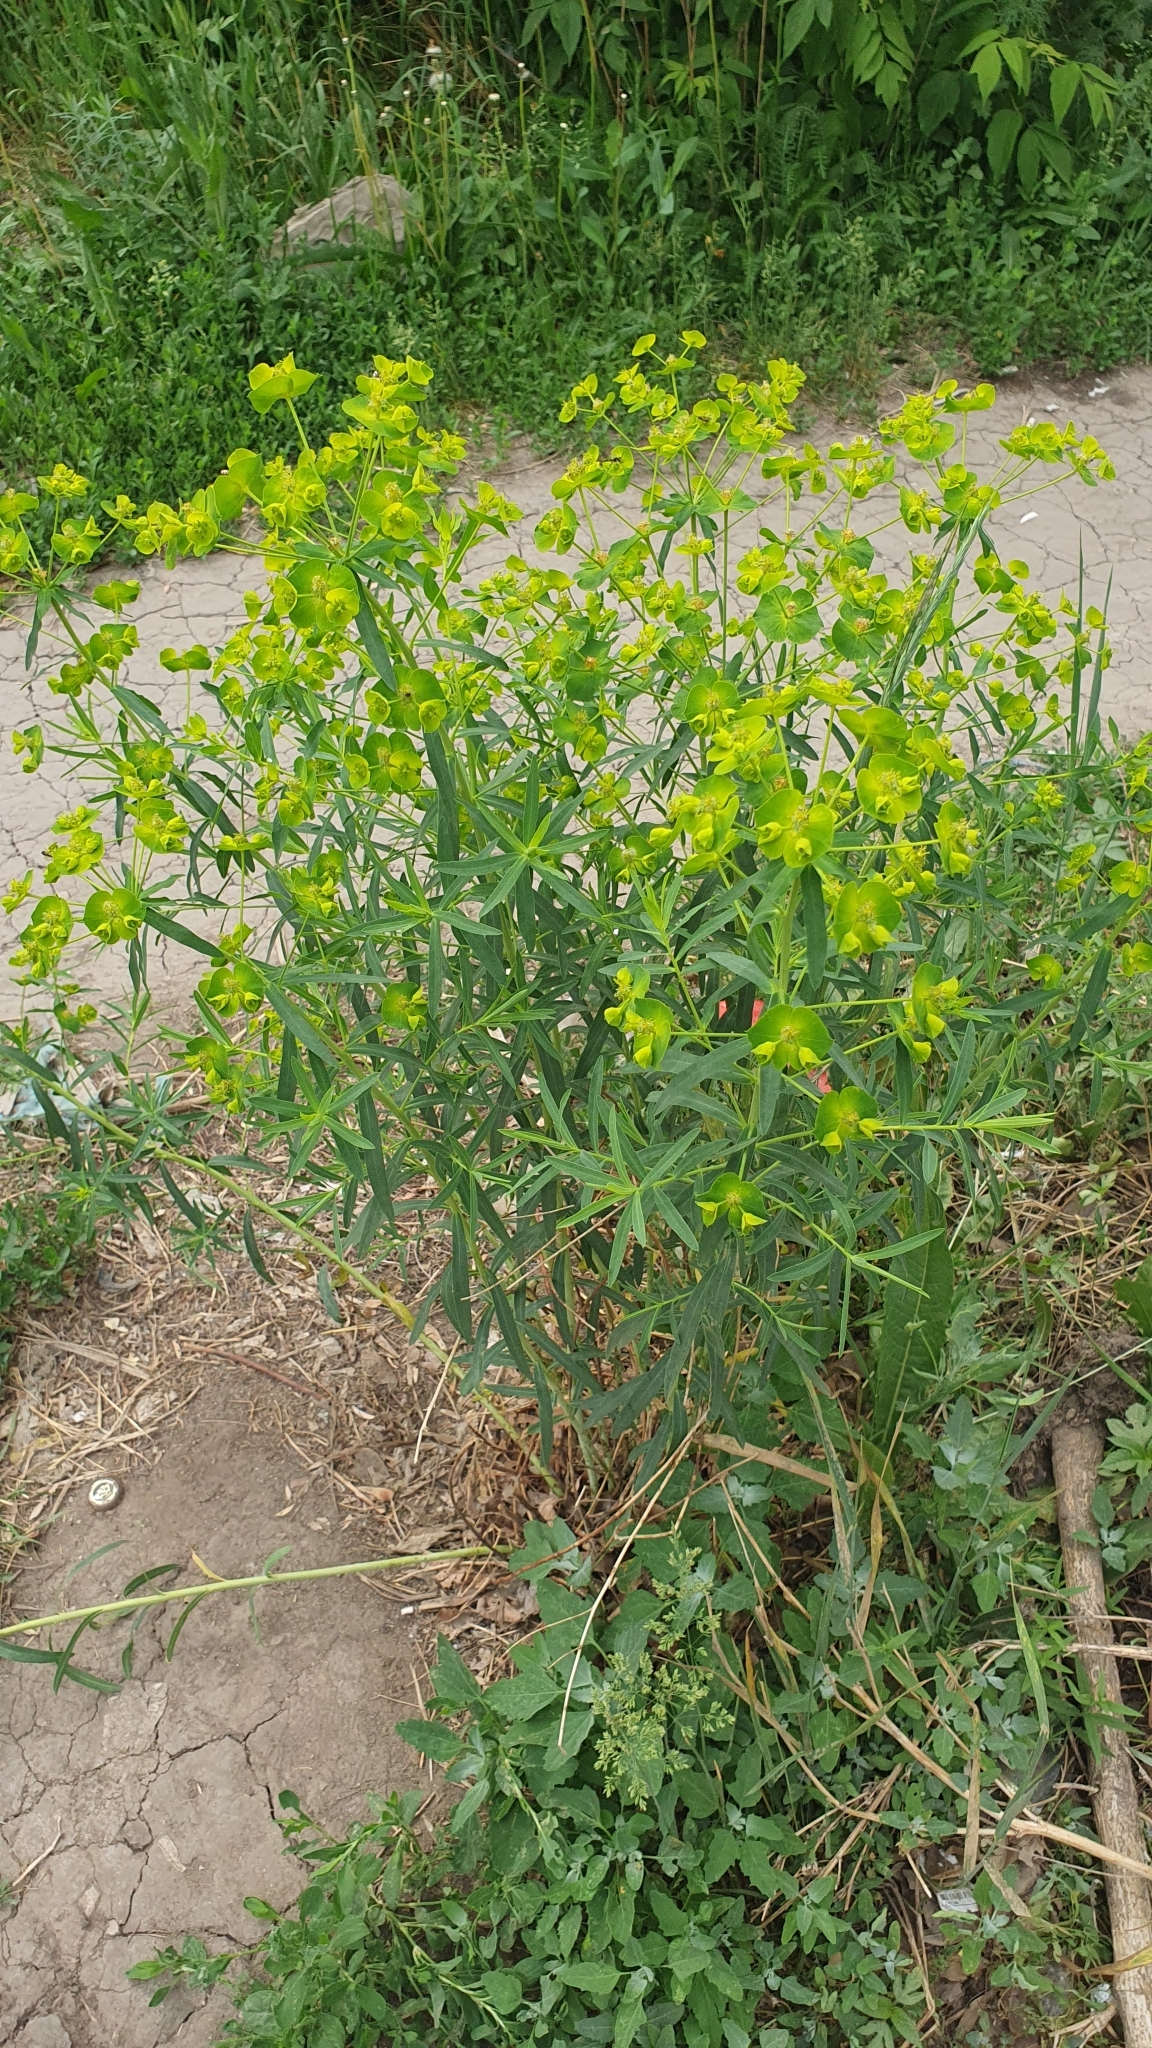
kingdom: Plantae
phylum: Tracheophyta
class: Magnoliopsida
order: Malpighiales
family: Euphorbiaceae
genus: Euphorbia
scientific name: Euphorbia virgata
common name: Leafy spurge
